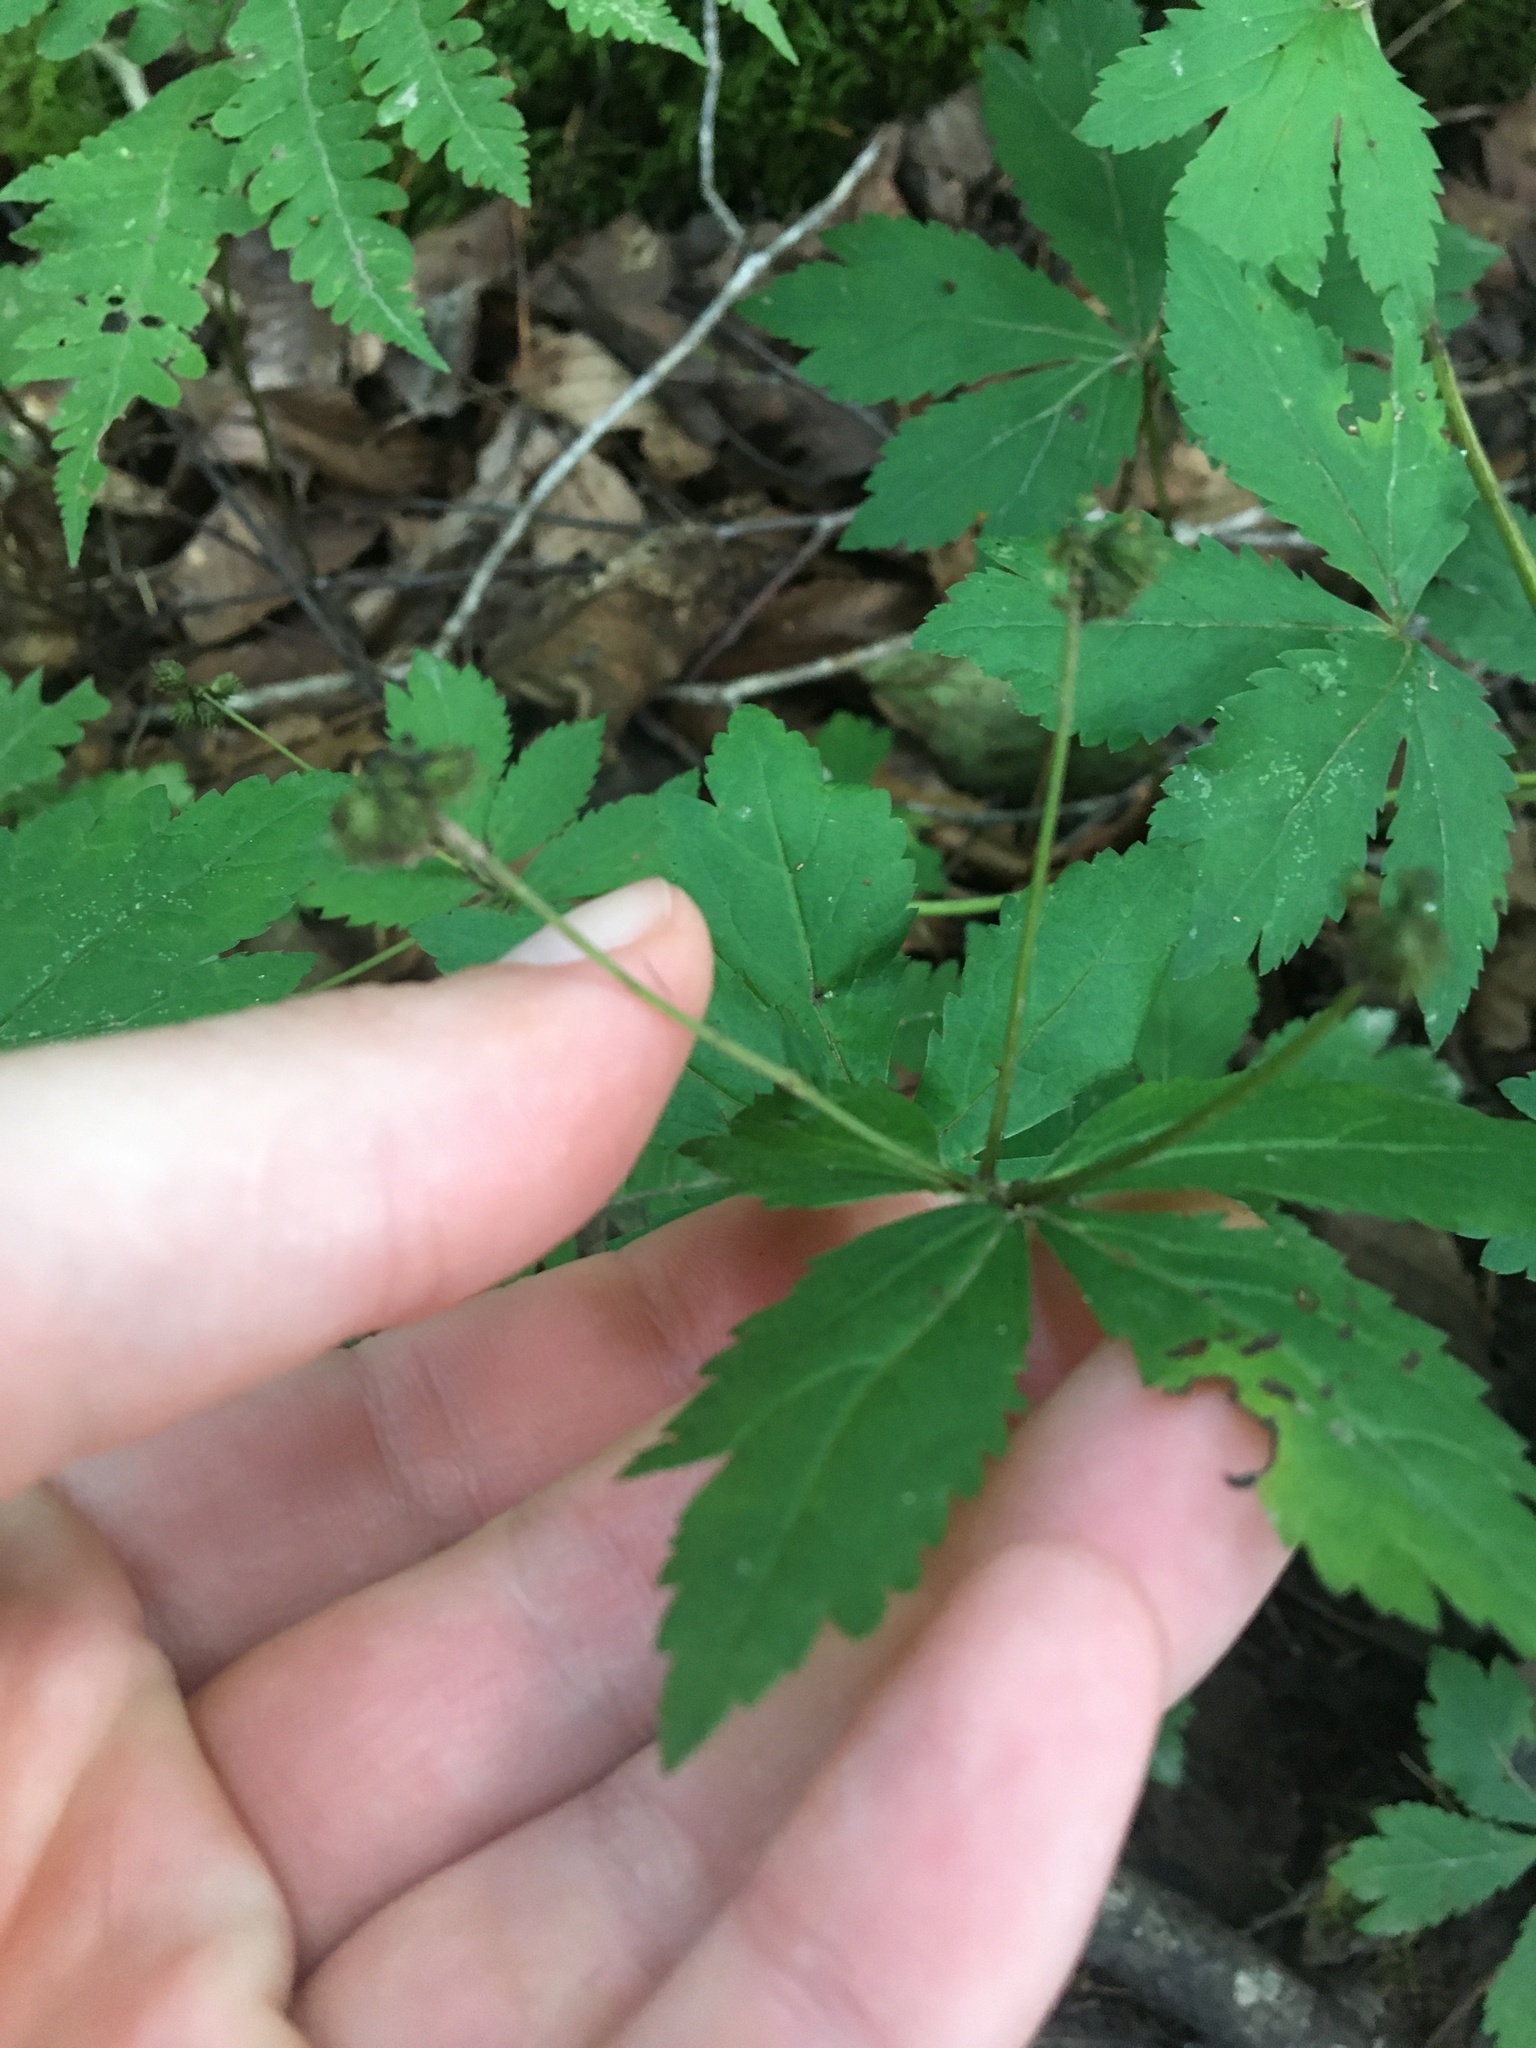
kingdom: Plantae
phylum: Tracheophyta
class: Magnoliopsida
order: Apiales
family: Apiaceae
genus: Sanicula
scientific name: Sanicula trifoliata
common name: Beaked sanicle
